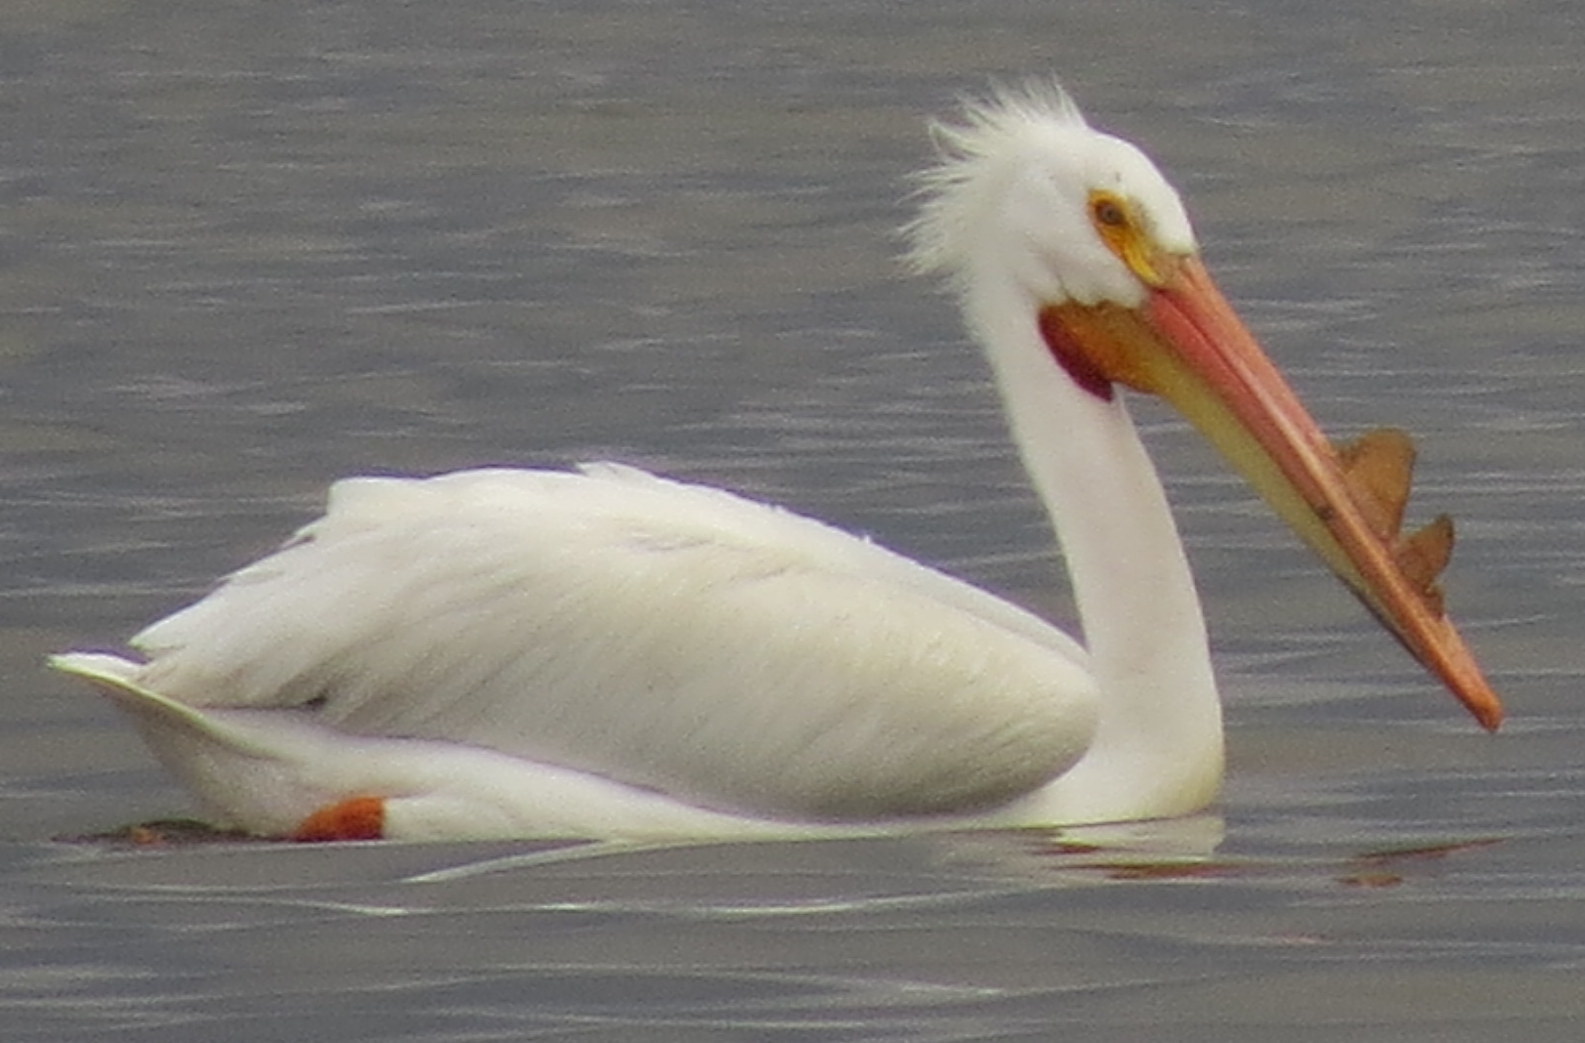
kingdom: Animalia
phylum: Chordata
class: Aves
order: Pelecaniformes
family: Pelecanidae
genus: Pelecanus
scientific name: Pelecanus erythrorhynchos
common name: American white pelican
